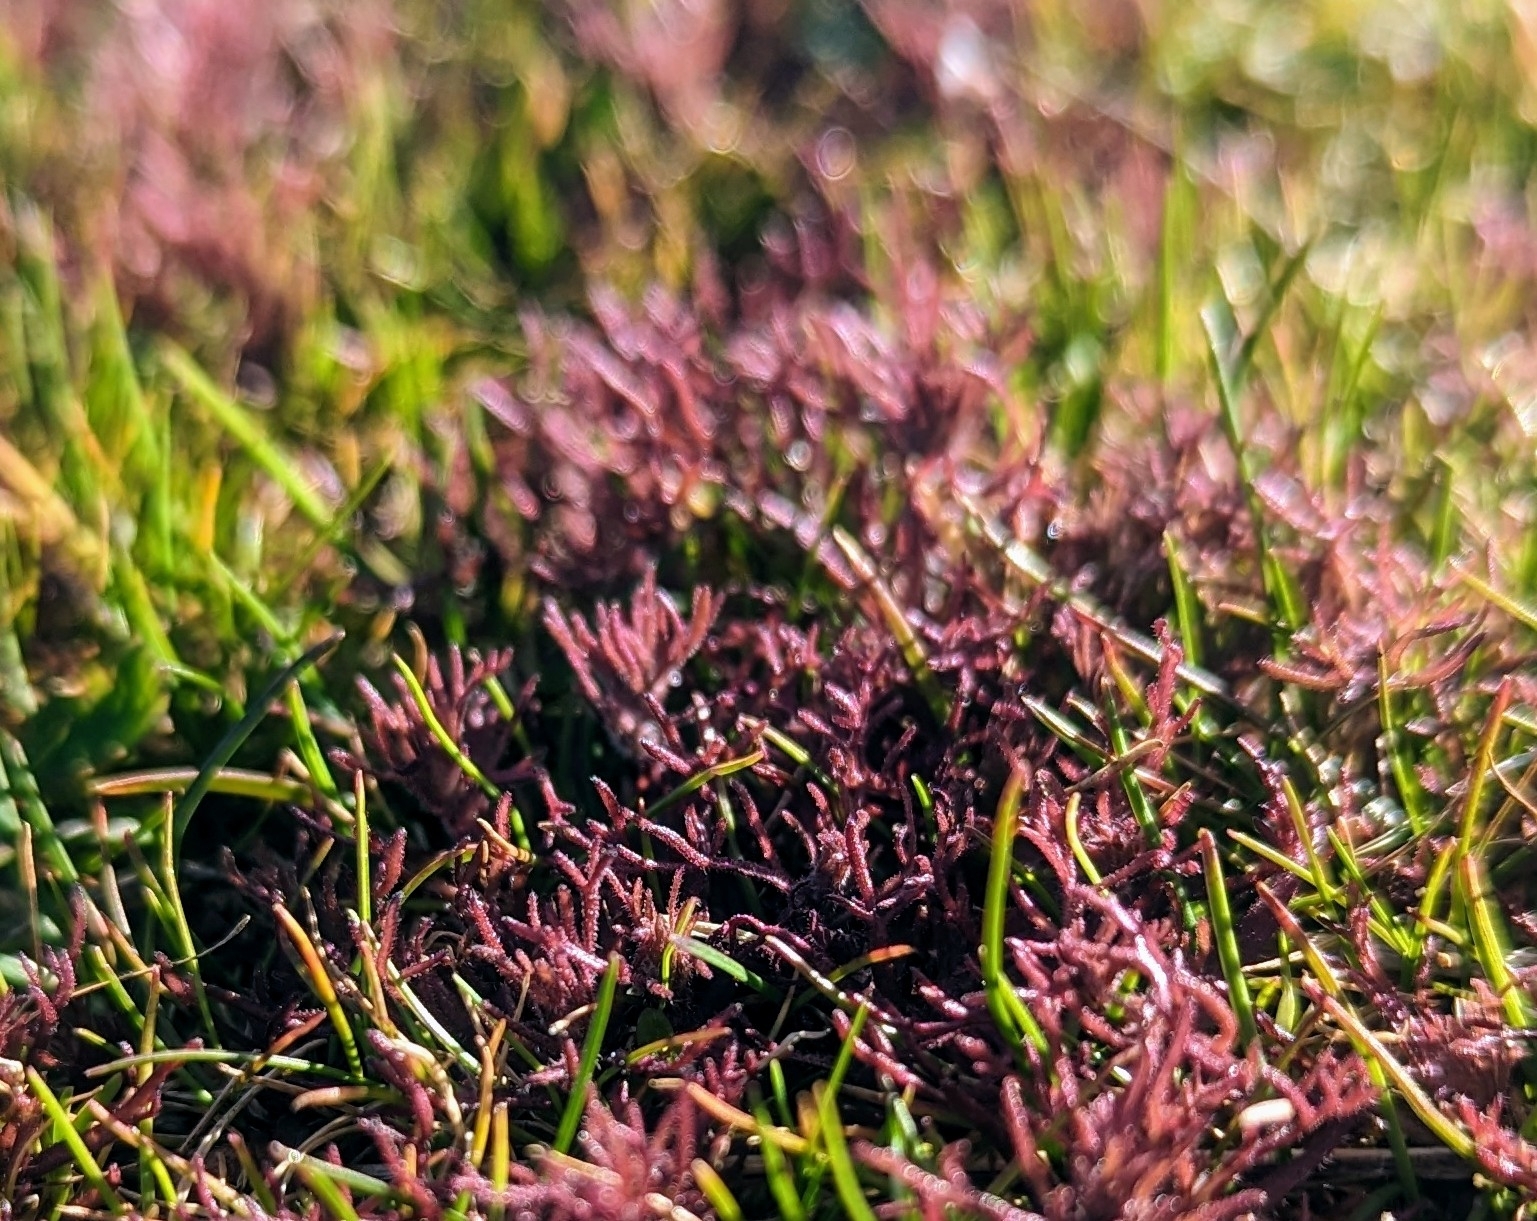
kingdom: Plantae
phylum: Tracheophyta
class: Magnoliopsida
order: Lamiales
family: Orobanchaceae
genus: Triphysaria
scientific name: Triphysaria pusilla
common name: Dwarf false owl-clover
